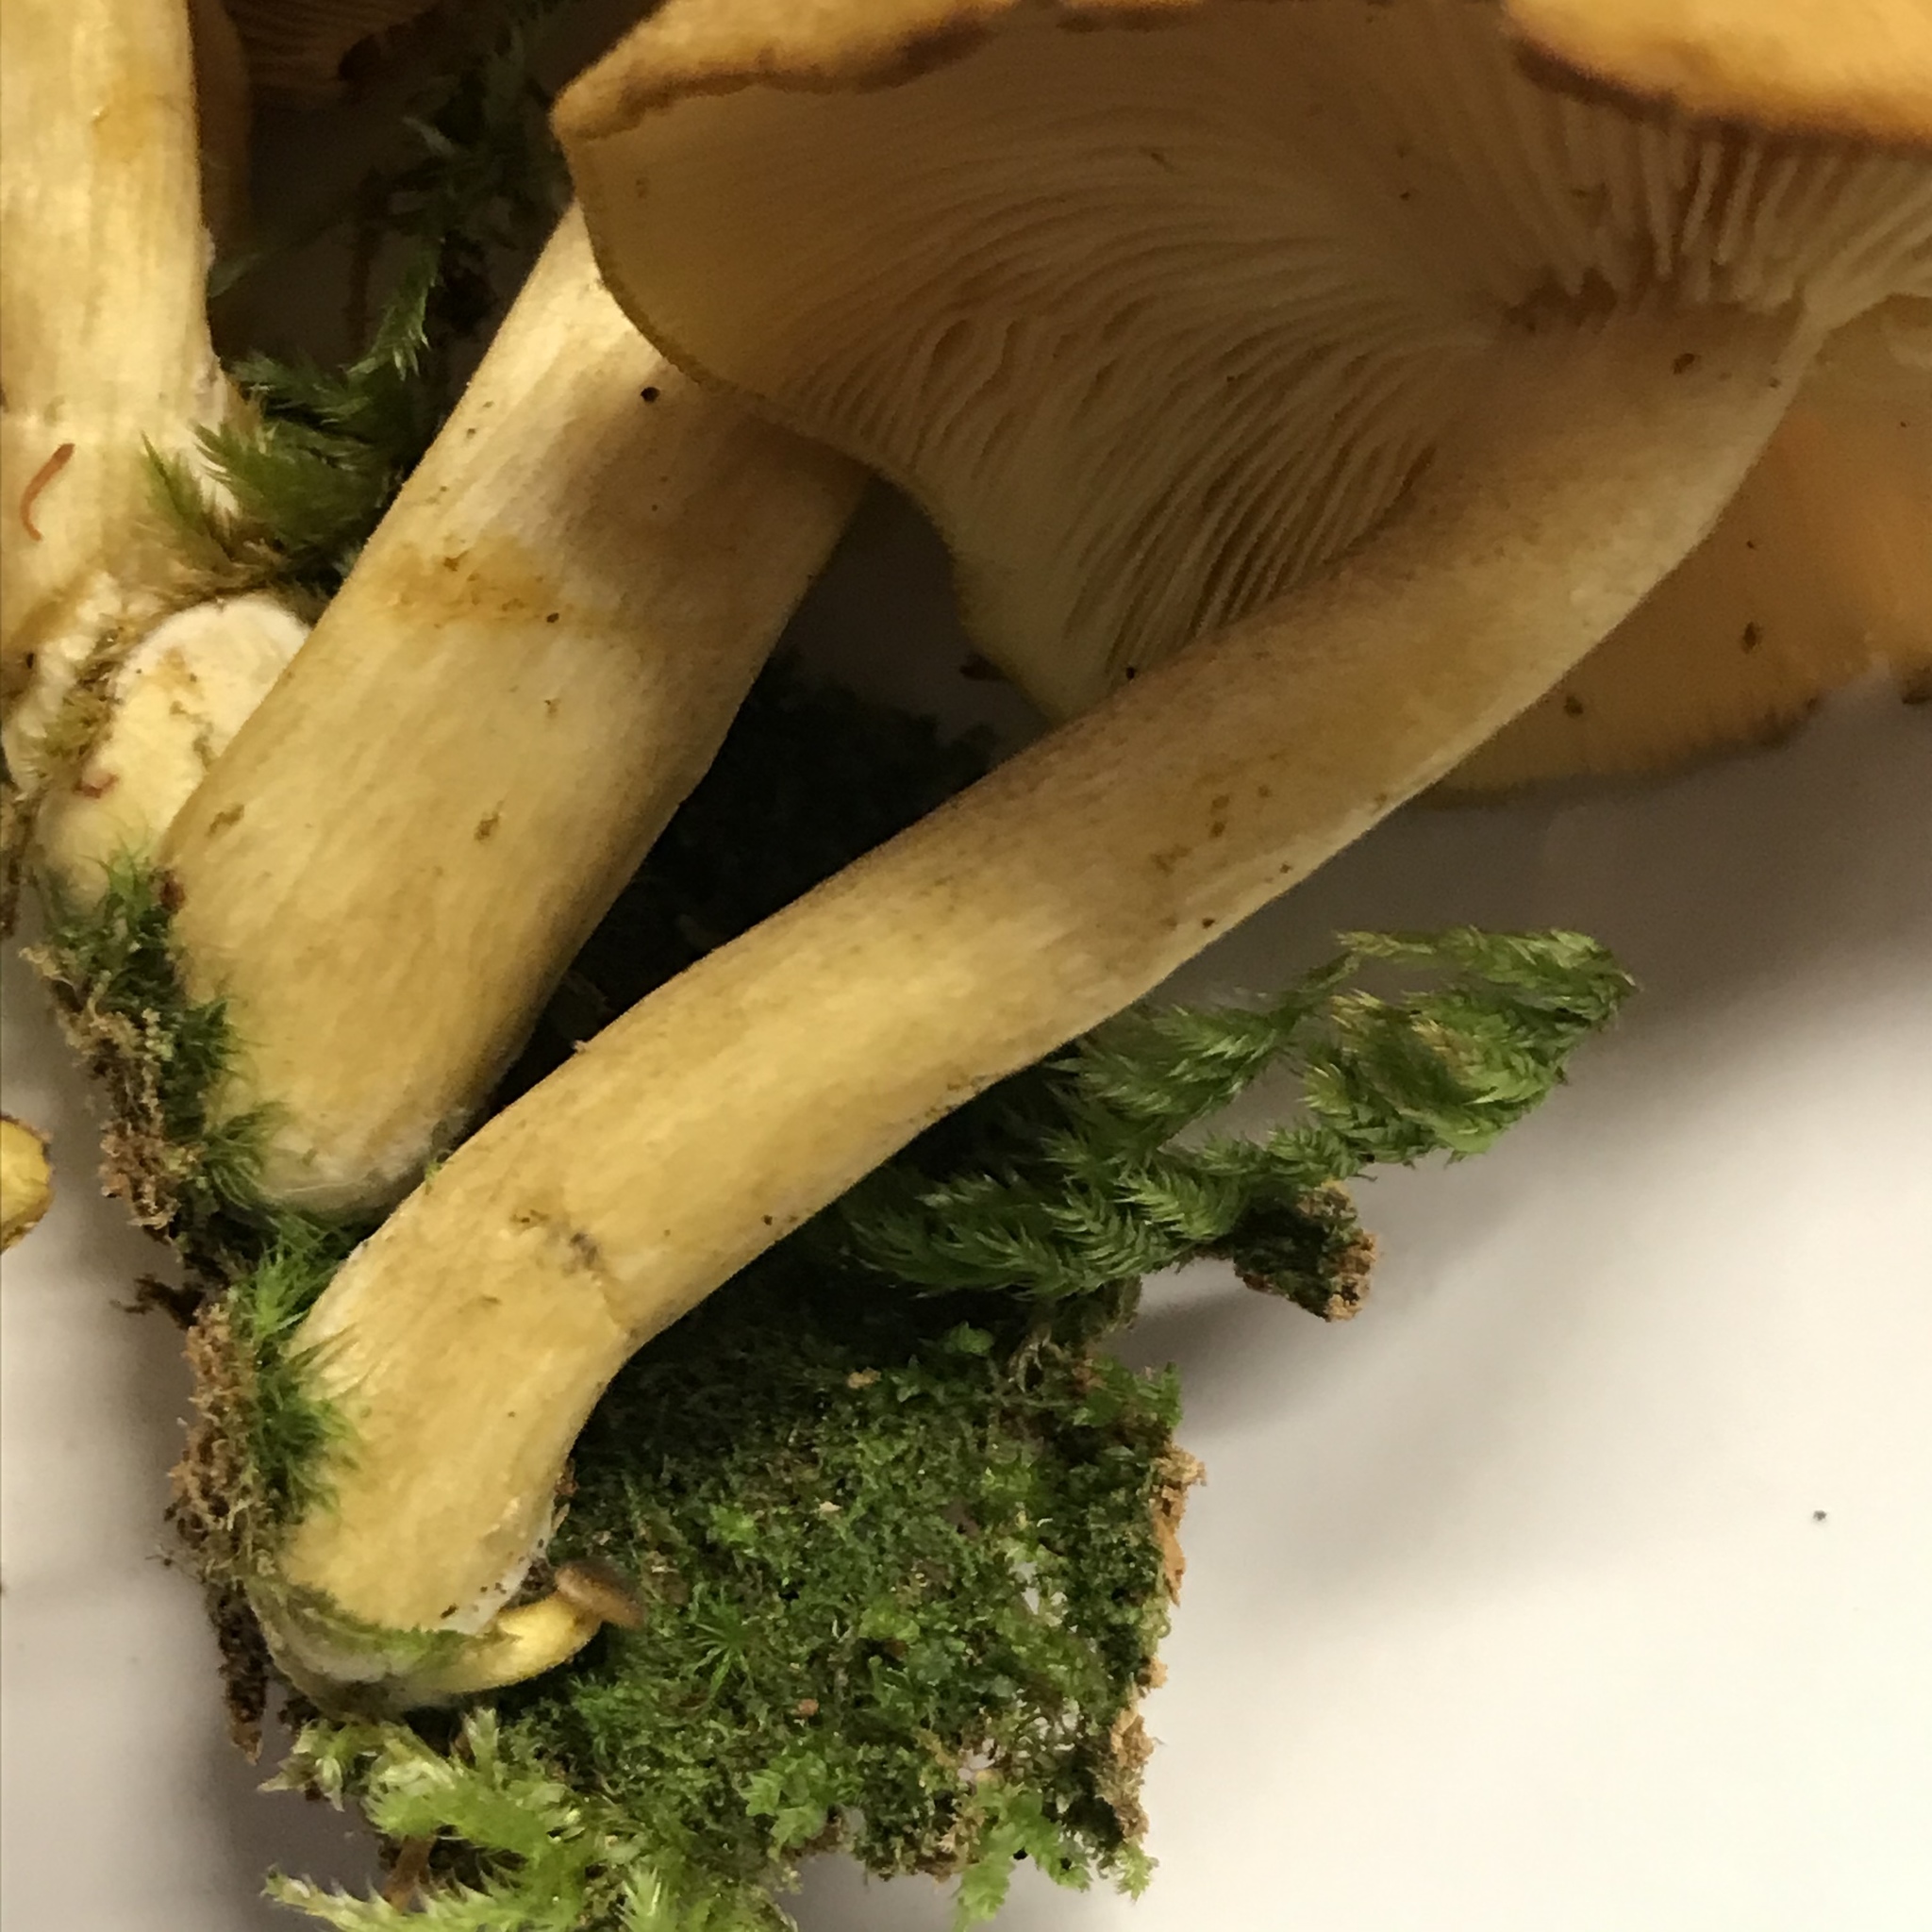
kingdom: Fungi
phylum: Basidiomycota
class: Agaricomycetes
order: Agaricales
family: Tricholomataceae
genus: Tricholomopsis
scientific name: Tricholomopsis decora
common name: Prunes and custard
